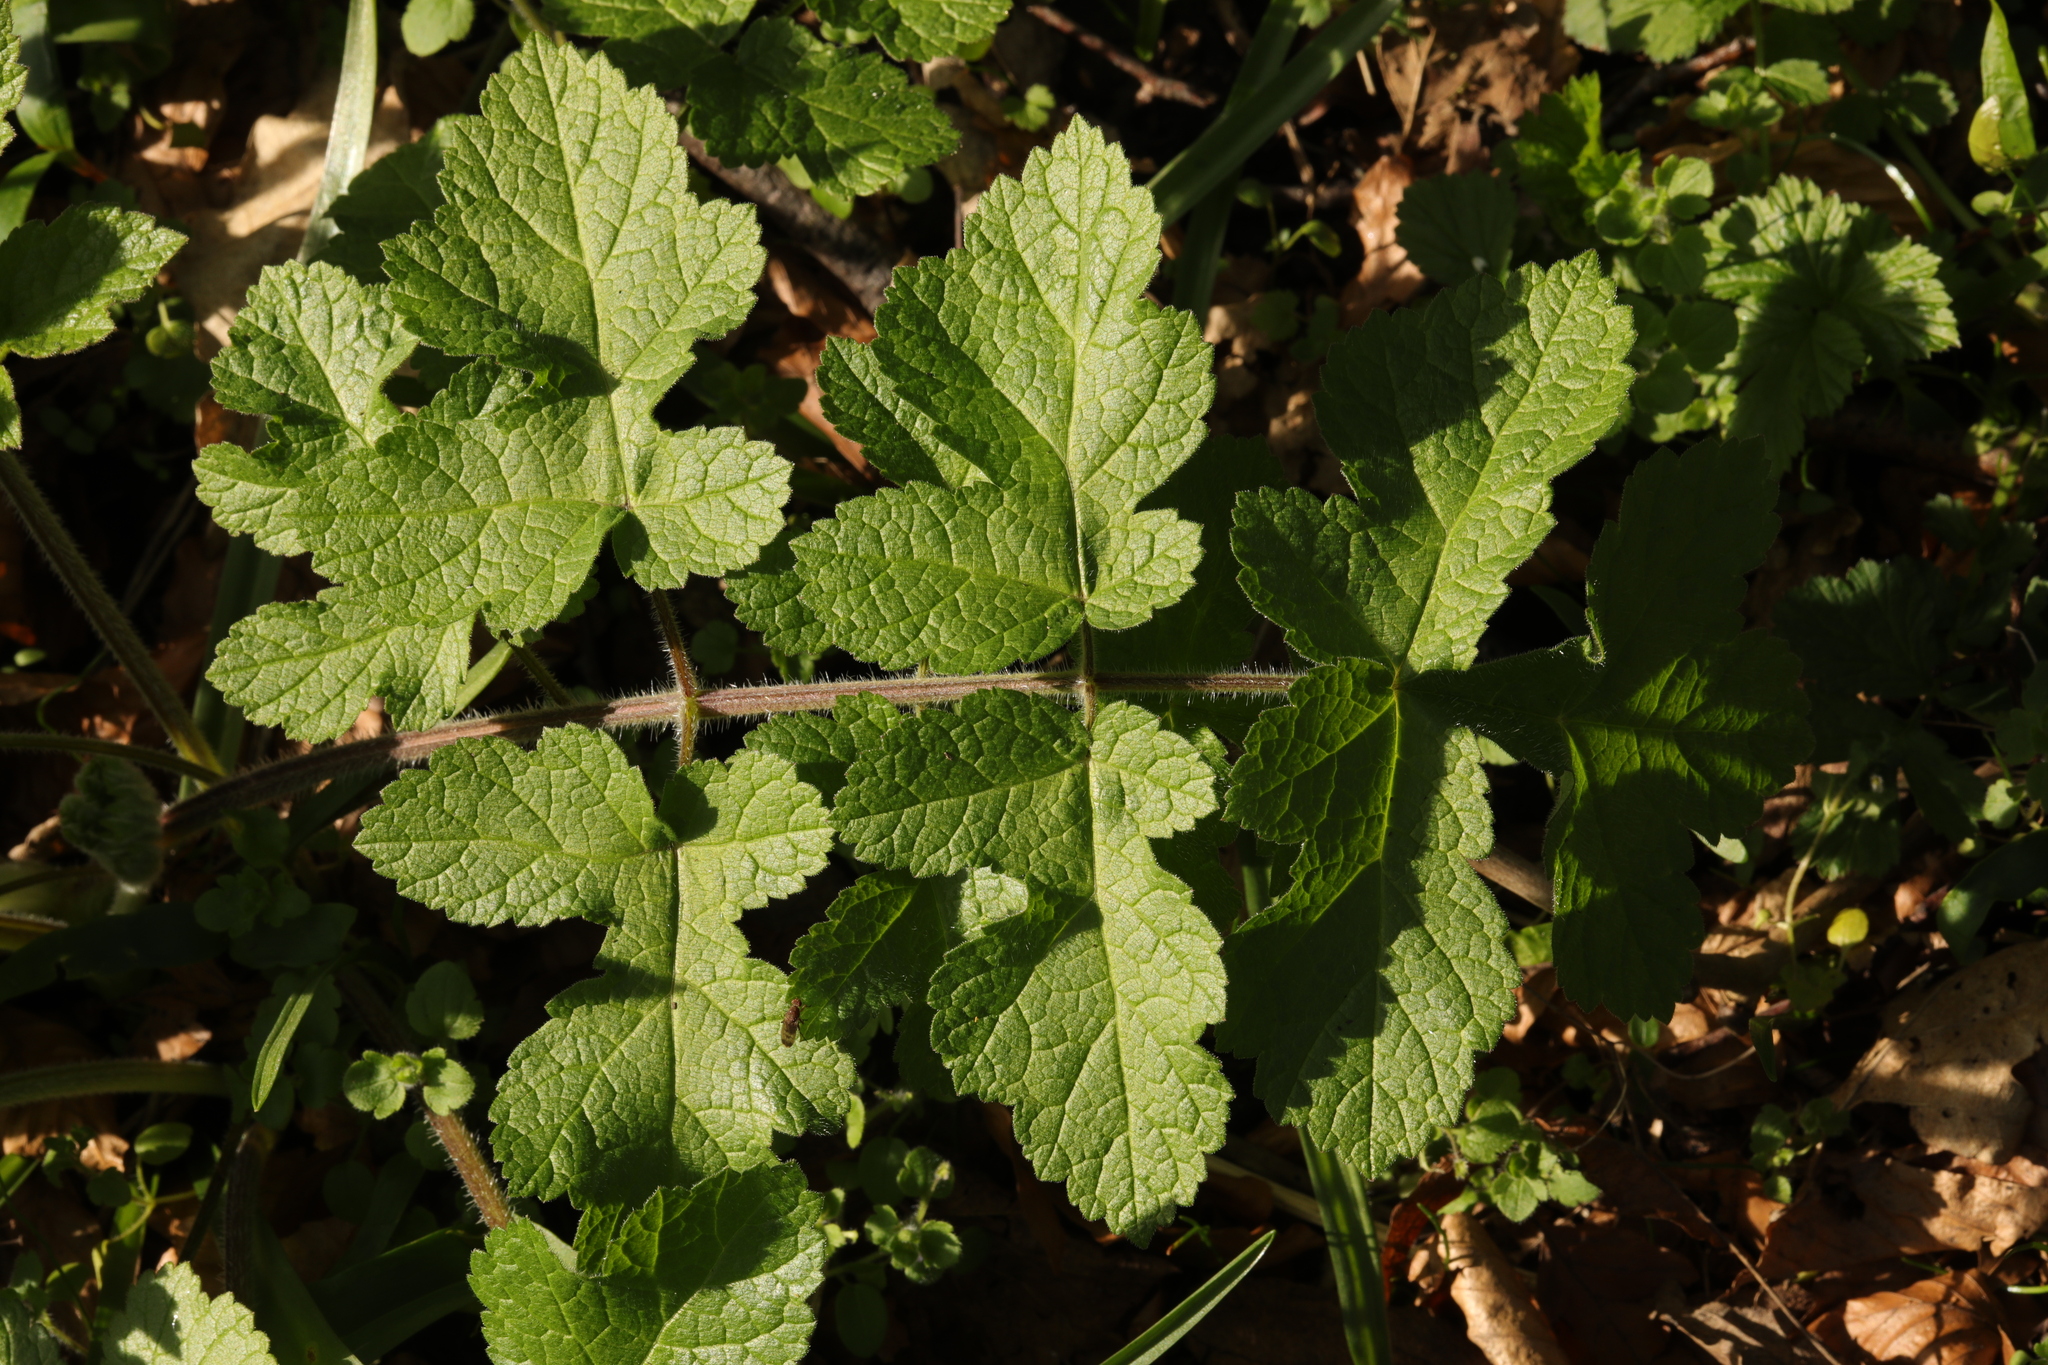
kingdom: Plantae
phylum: Tracheophyta
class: Magnoliopsida
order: Apiales
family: Apiaceae
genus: Heracleum
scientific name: Heracleum sphondylium
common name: Hogweed
